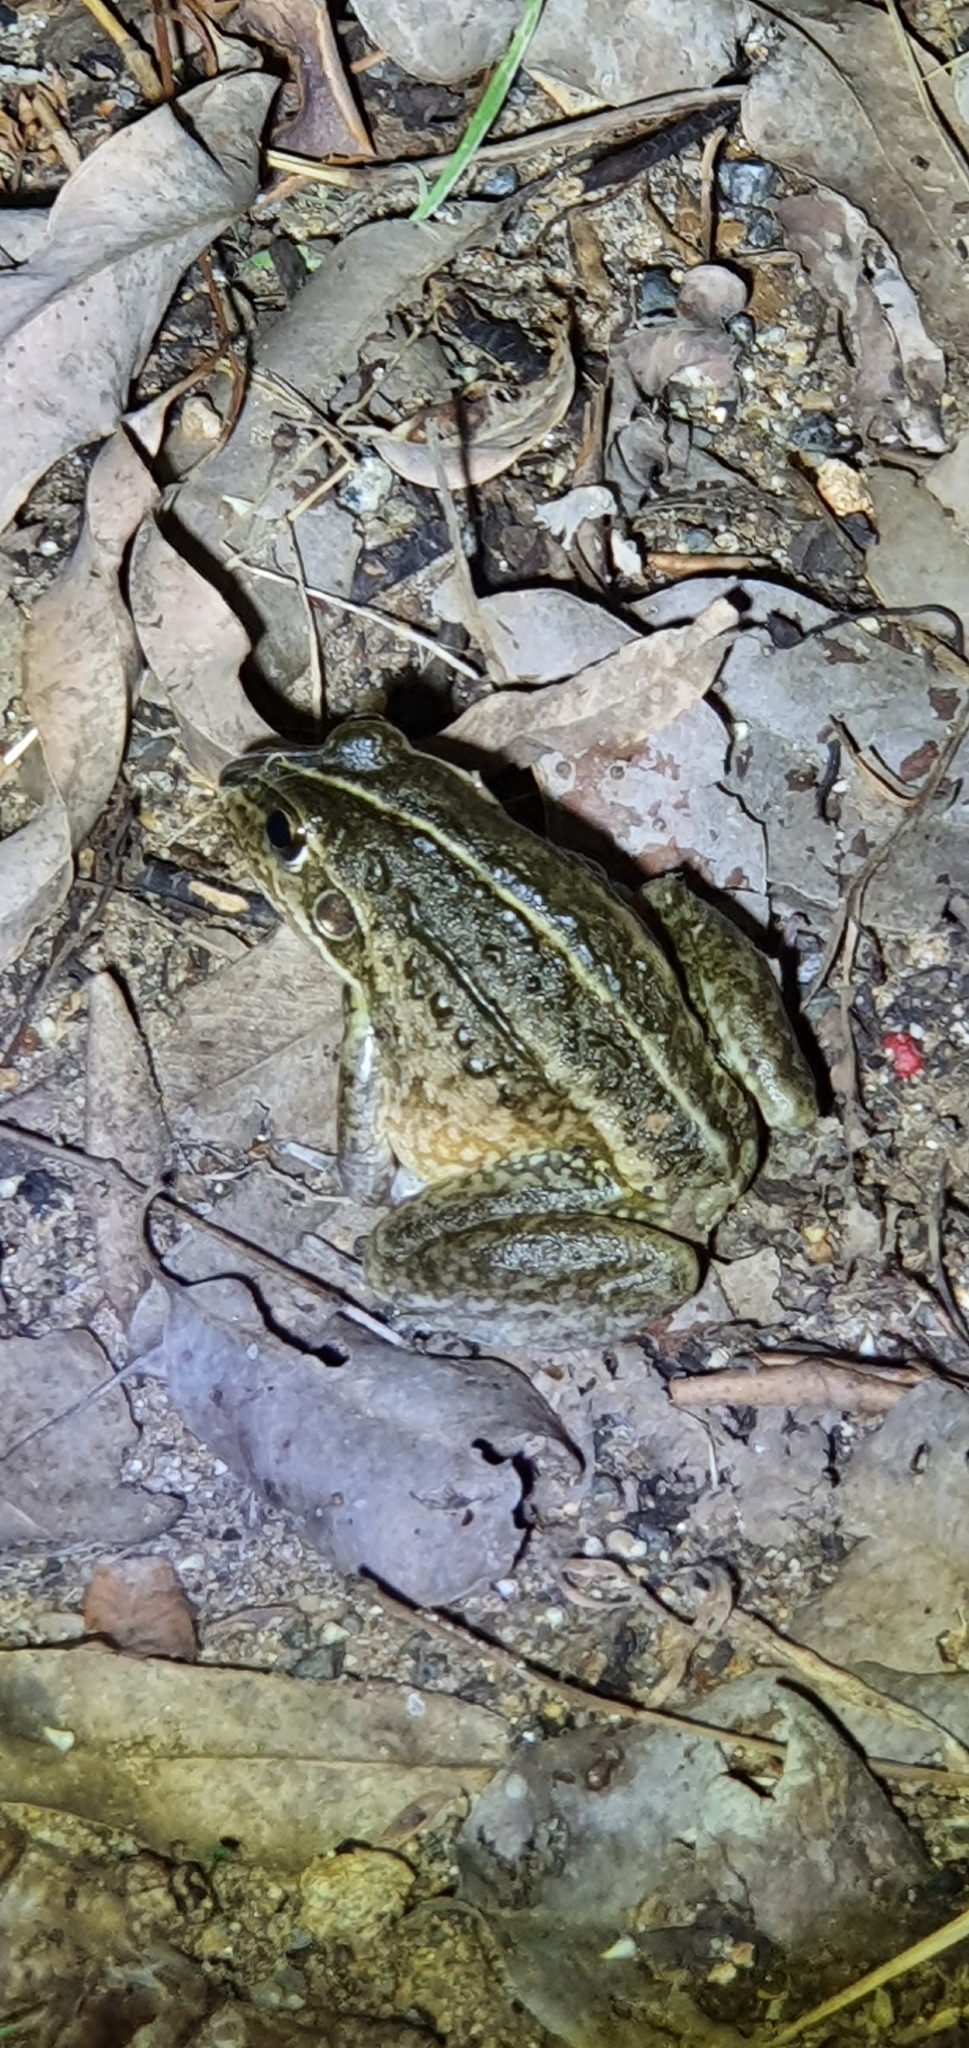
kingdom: Animalia
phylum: Chordata
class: Amphibia
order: Anura
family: Pelodryadidae
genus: Ranoidea
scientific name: Ranoidea alboguttata
